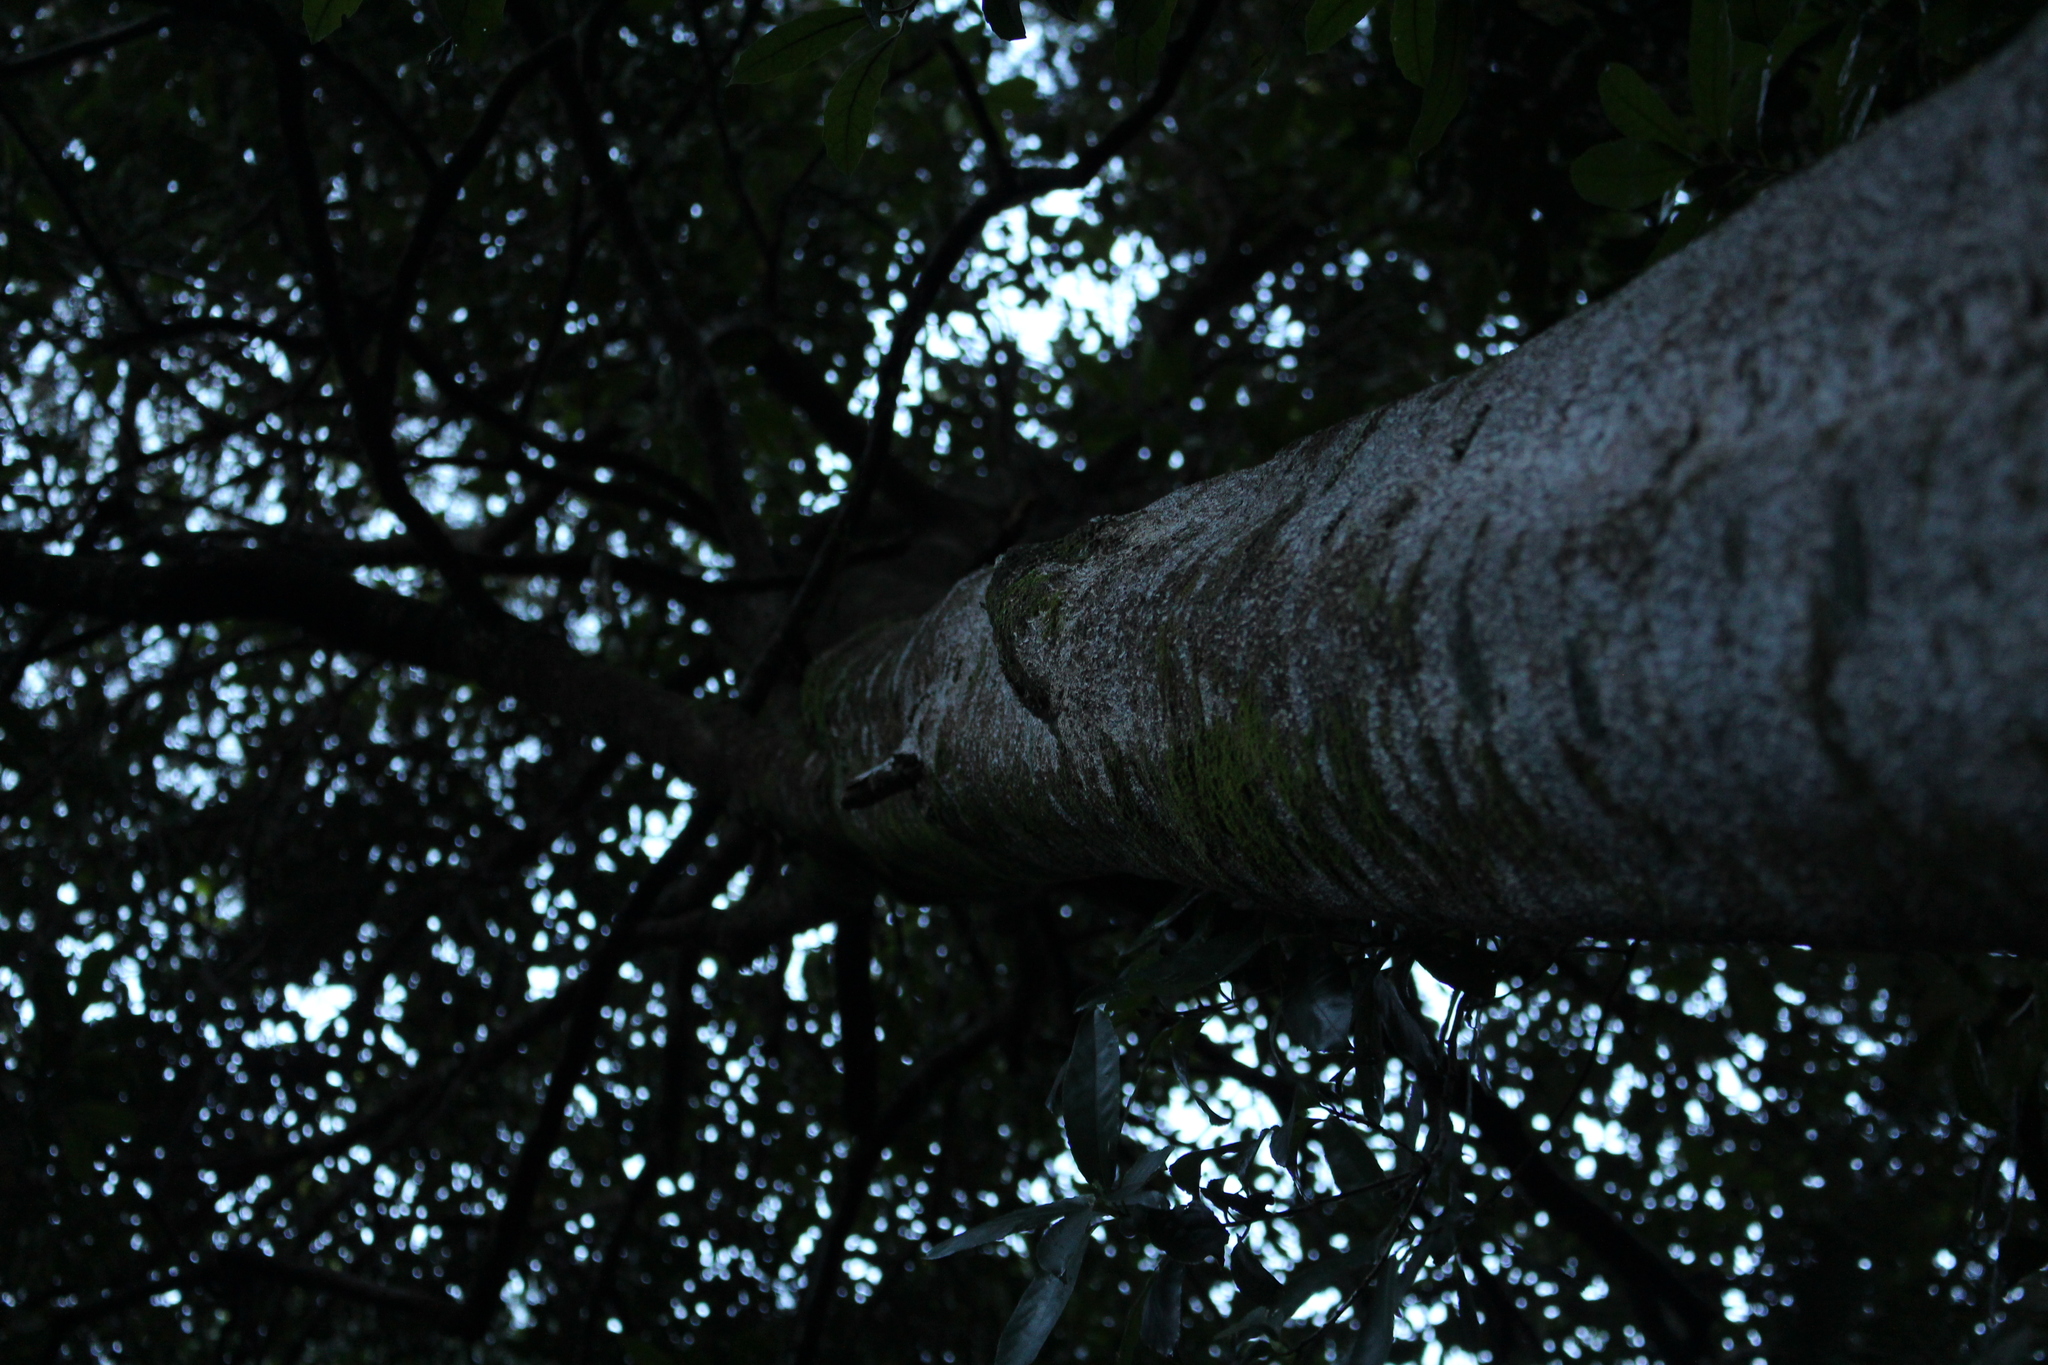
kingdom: Plantae
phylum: Tracheophyta
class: Magnoliopsida
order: Laurales
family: Monimiaceae
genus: Hedycarya
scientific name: Hedycarya arborea
